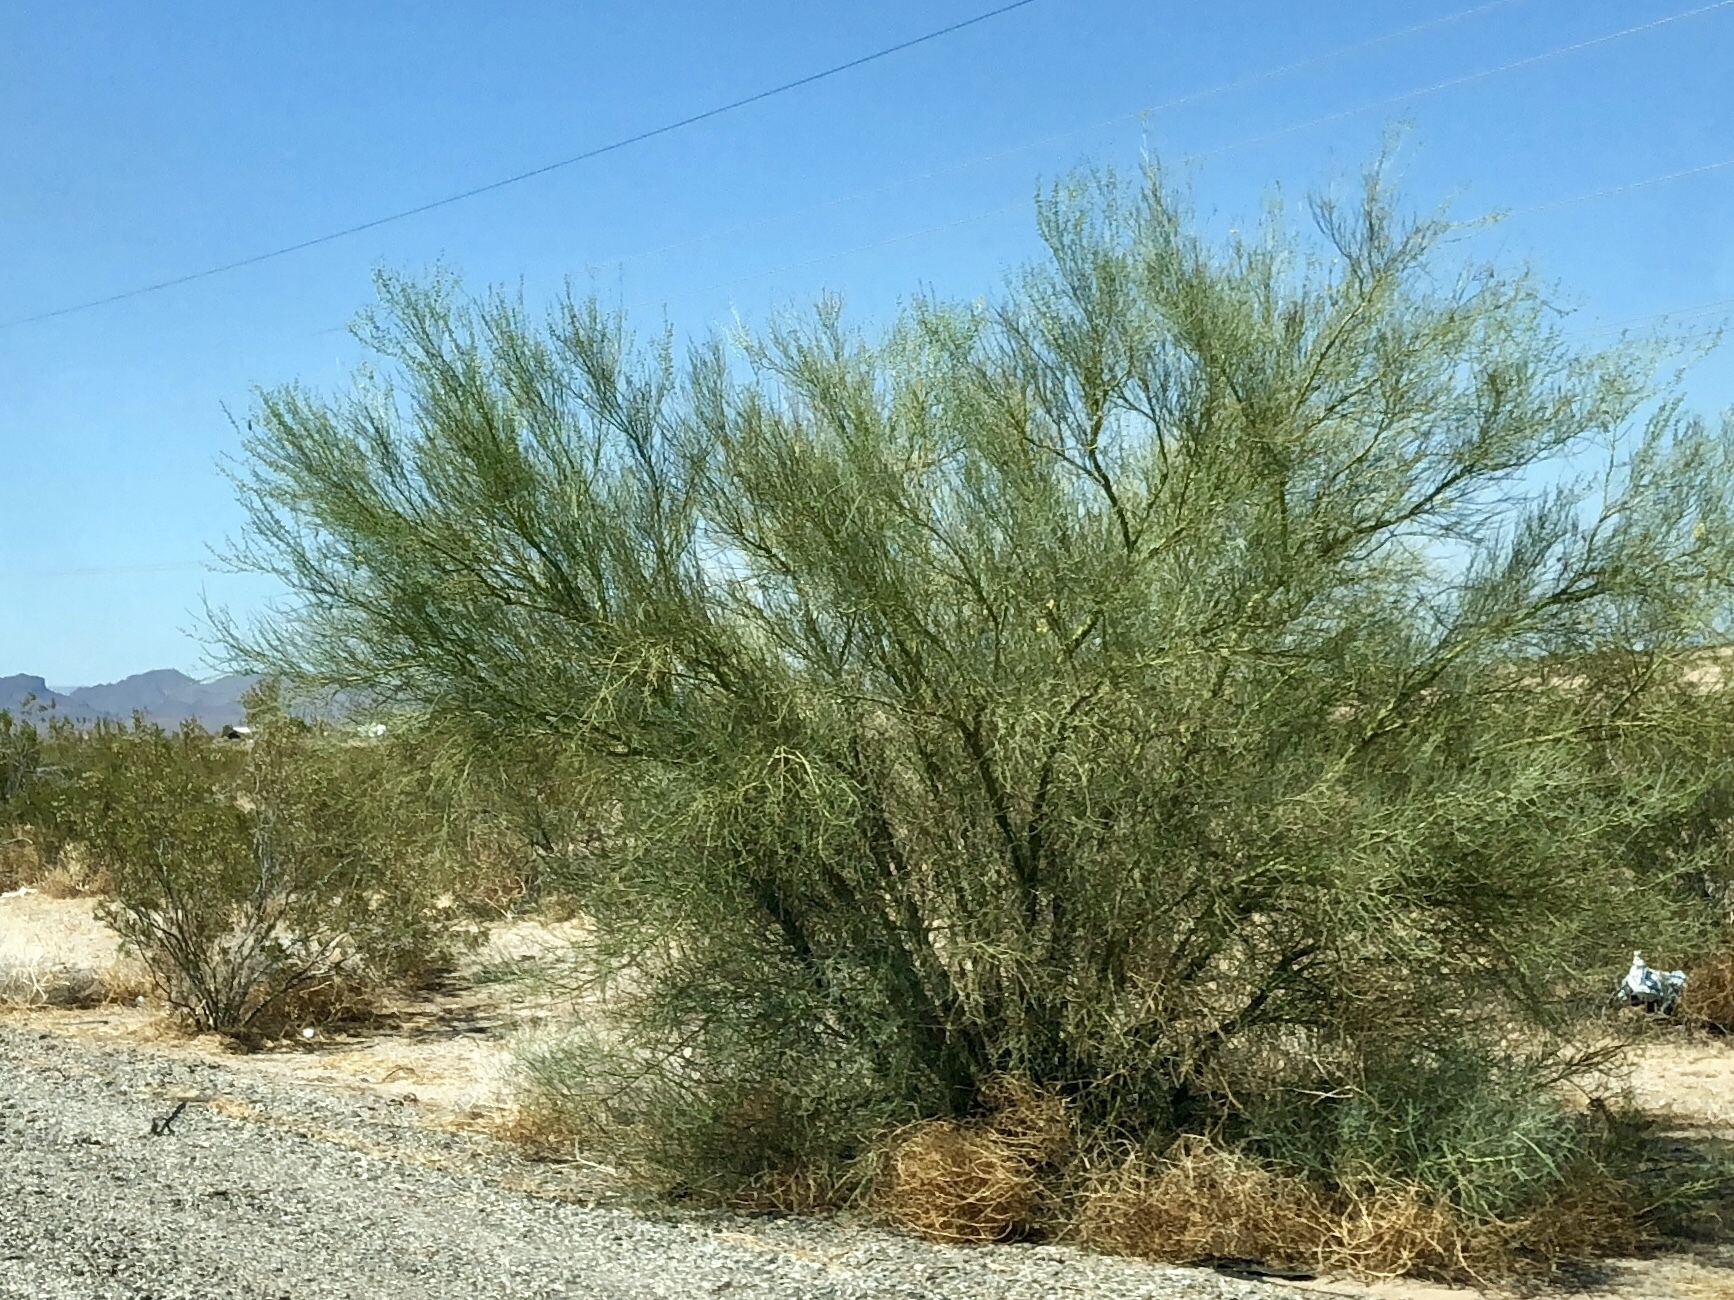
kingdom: Plantae
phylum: Tracheophyta
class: Magnoliopsida
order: Fabales
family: Fabaceae
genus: Parkinsonia
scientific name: Parkinsonia microphylla
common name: Yellow paloverde
